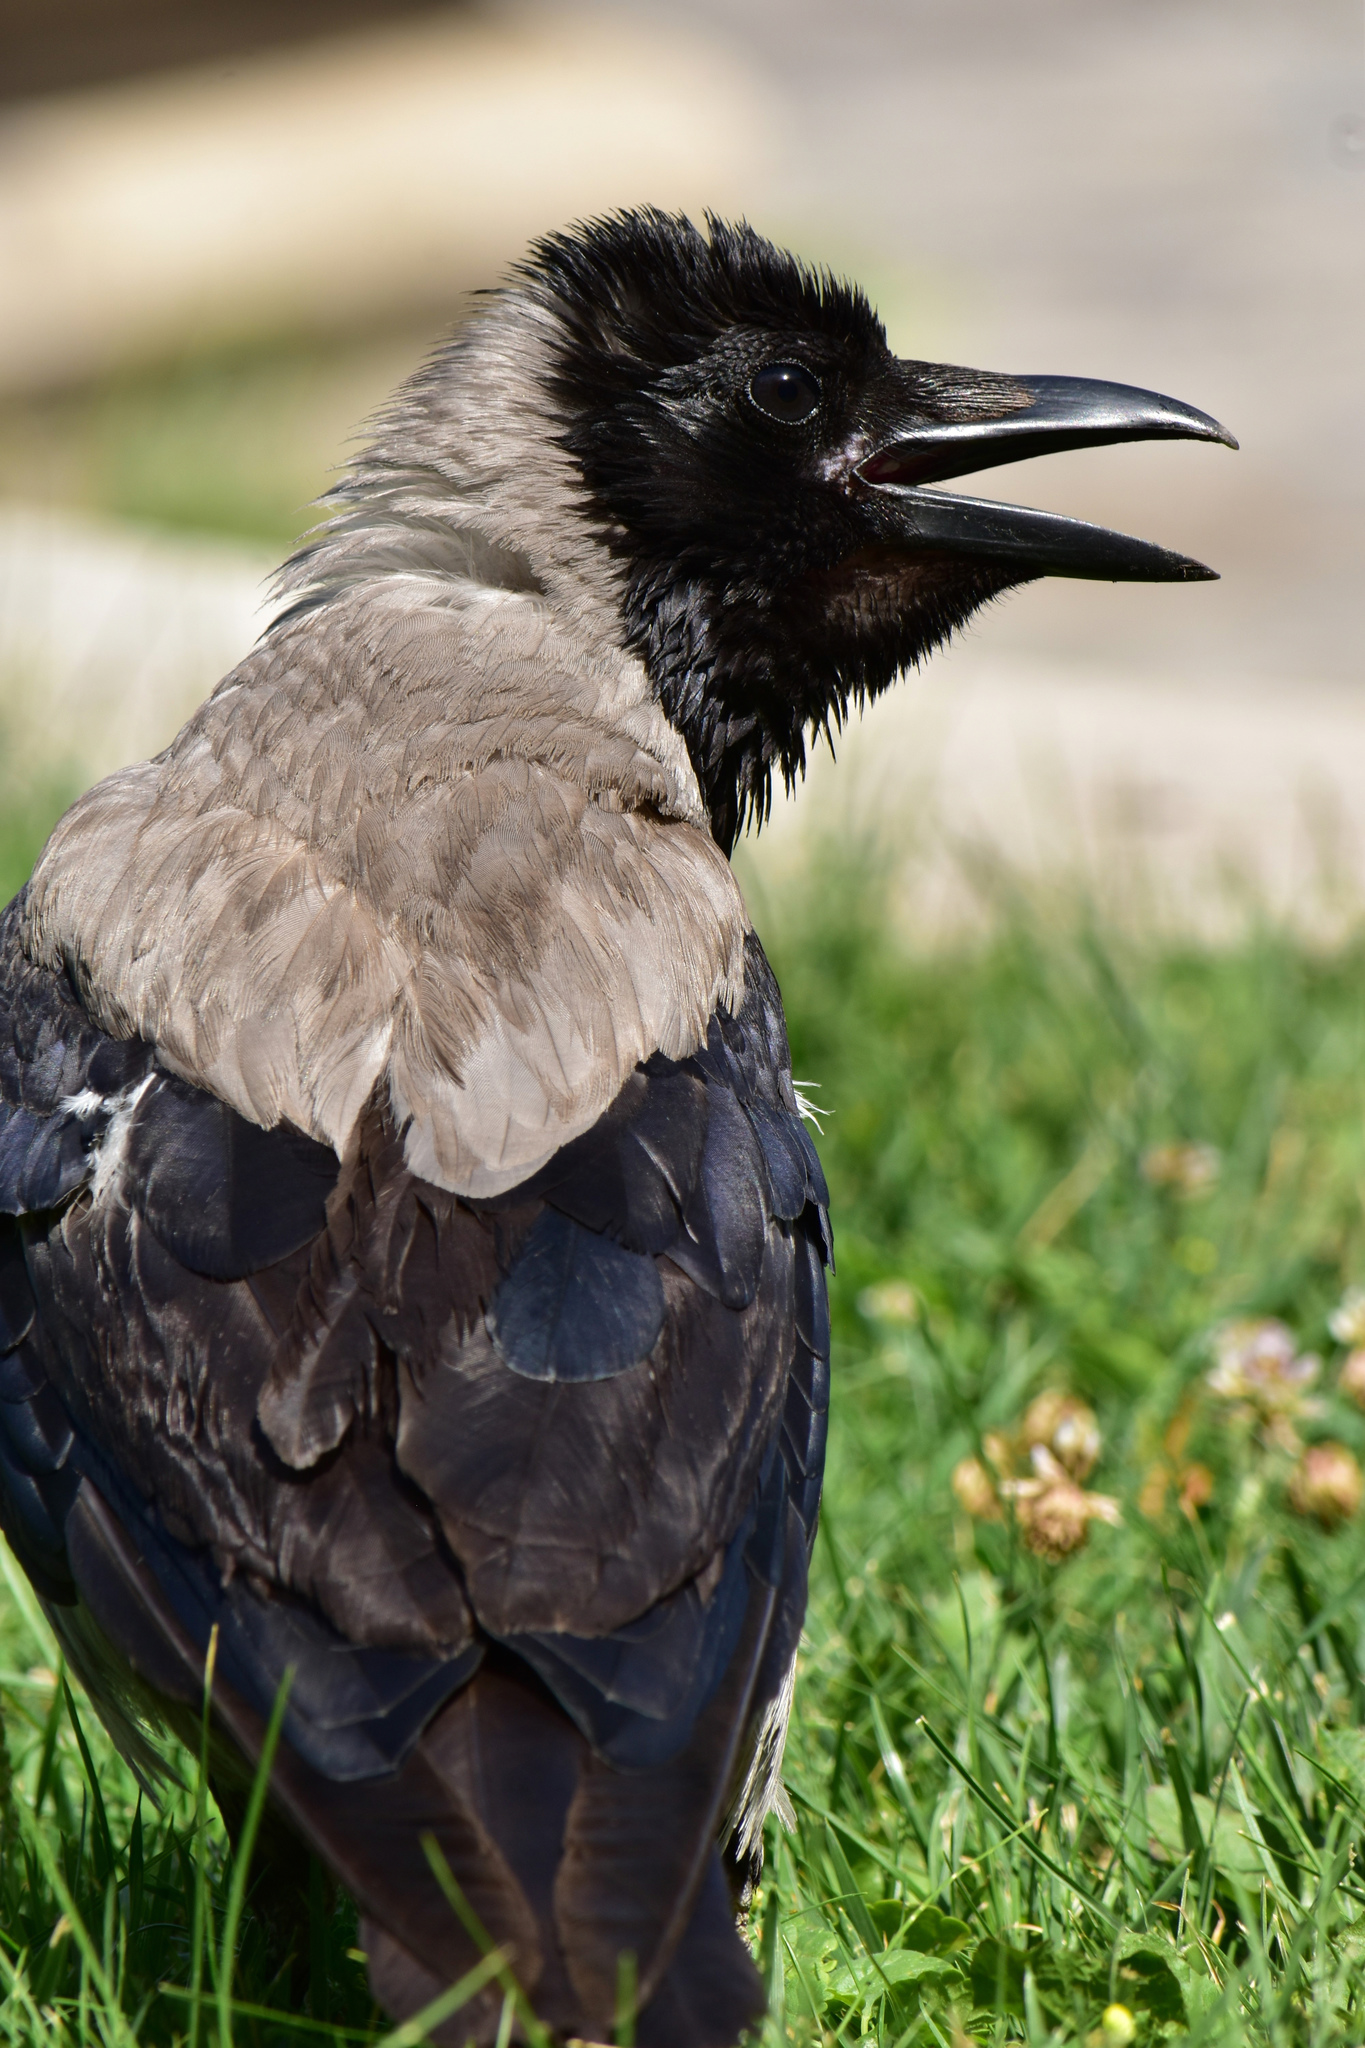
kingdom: Animalia
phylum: Chordata
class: Aves
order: Passeriformes
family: Corvidae
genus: Corvus
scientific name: Corvus cornix
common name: Hooded crow
